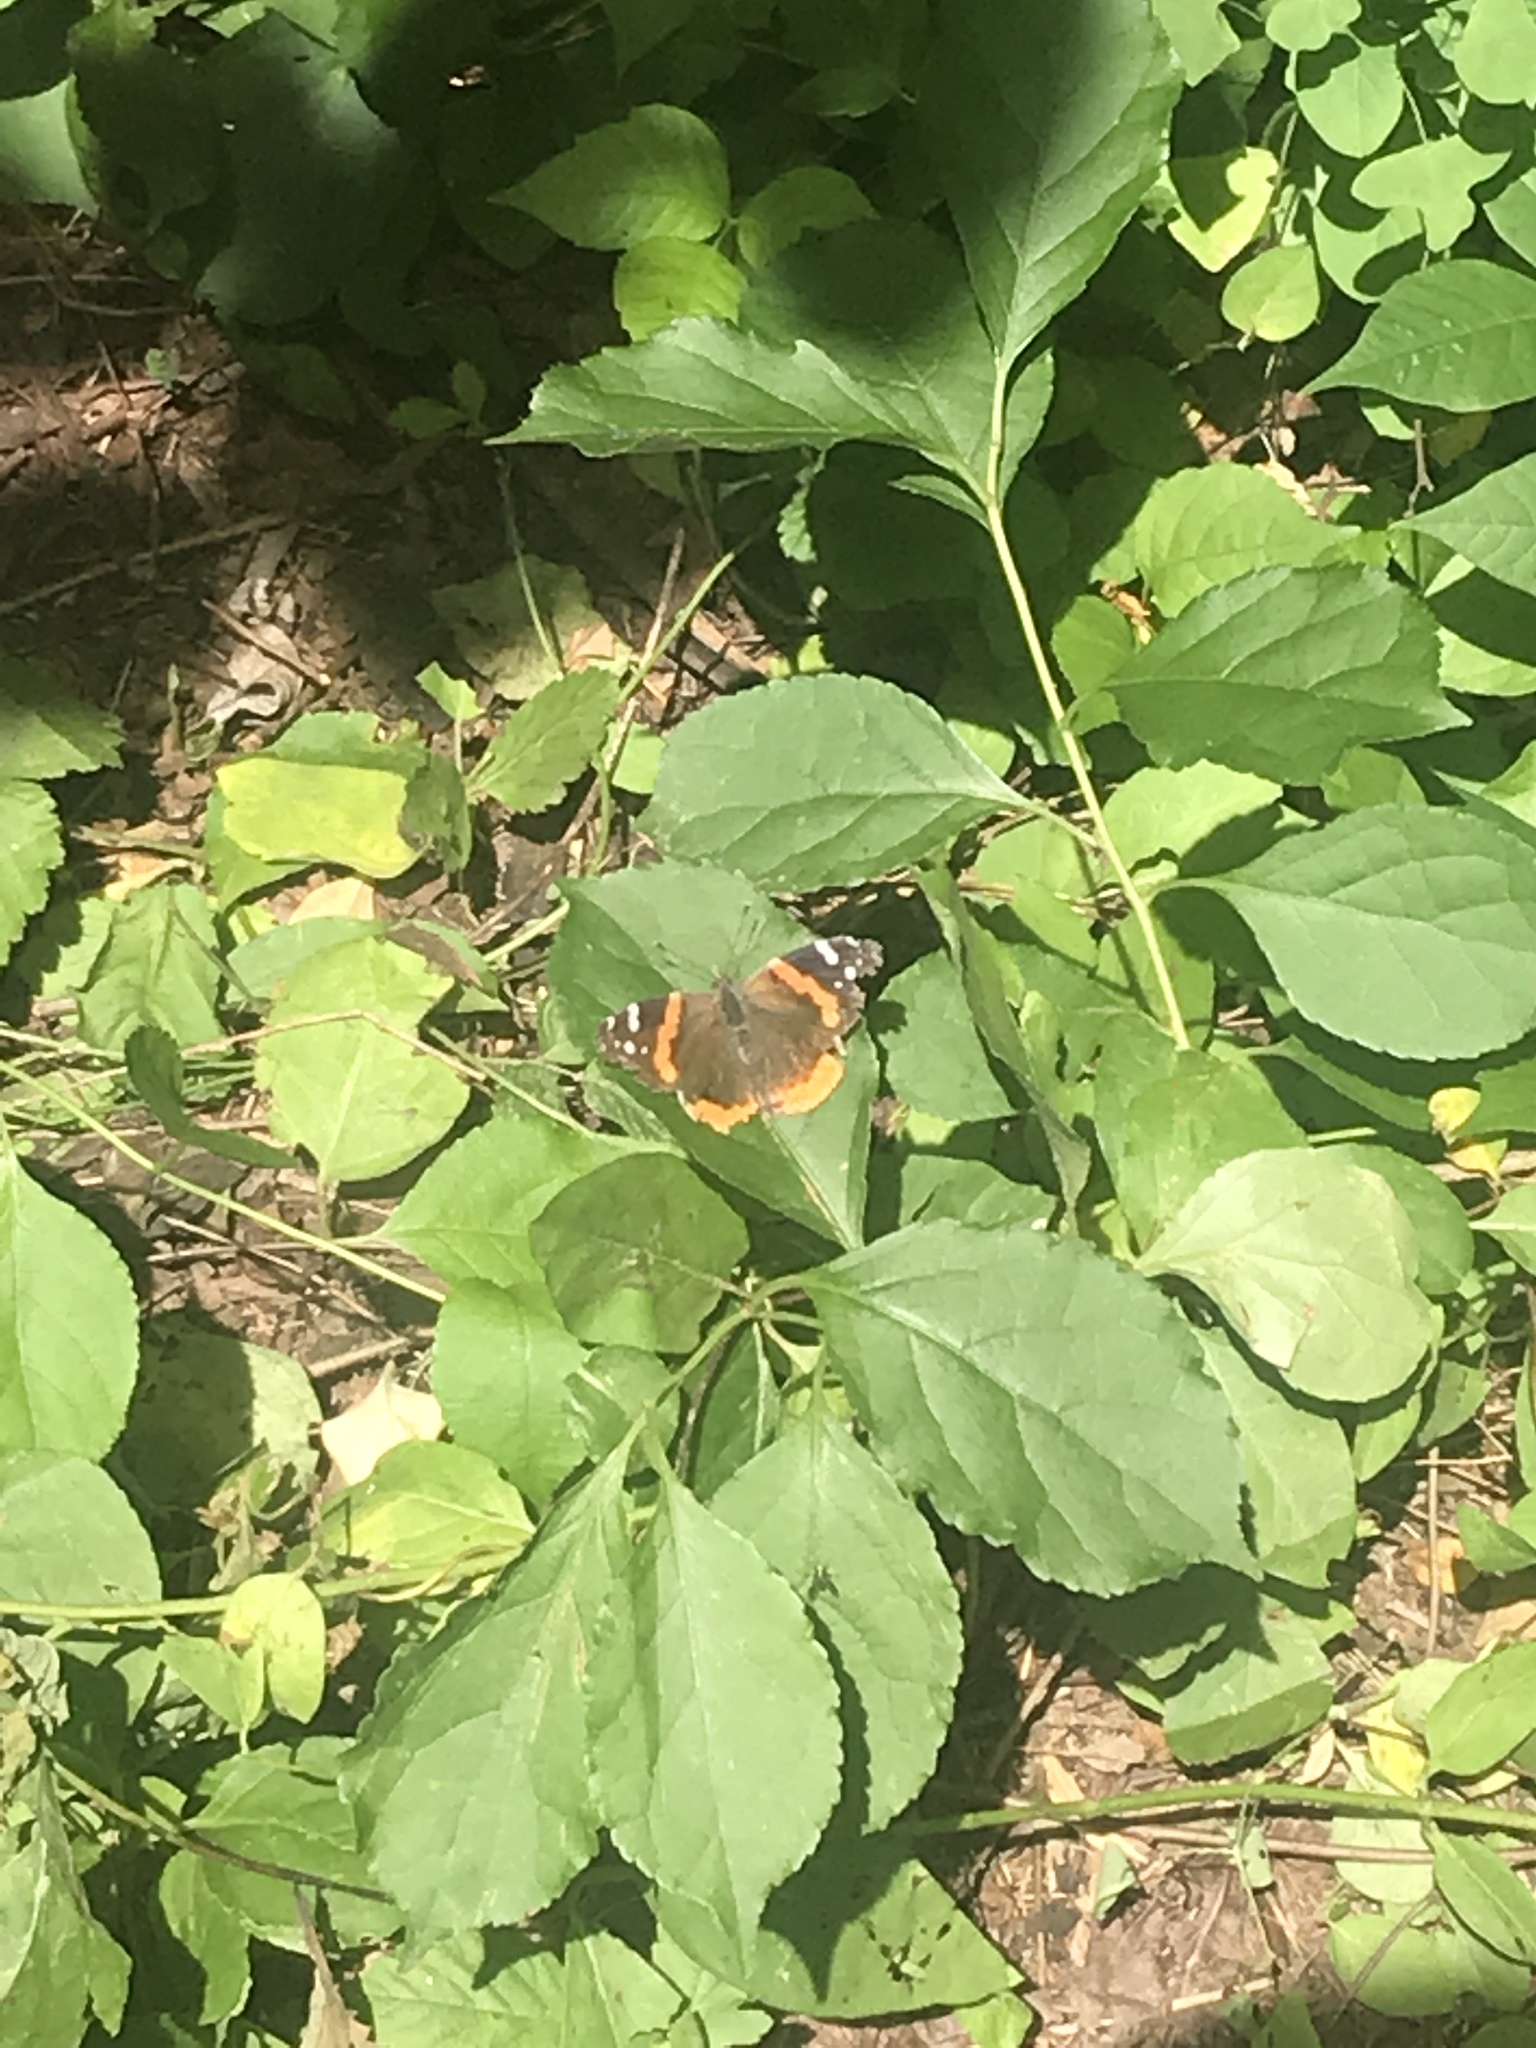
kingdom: Animalia
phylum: Arthropoda
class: Insecta
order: Lepidoptera
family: Nymphalidae
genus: Vanessa
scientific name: Vanessa atalanta
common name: Red admiral
